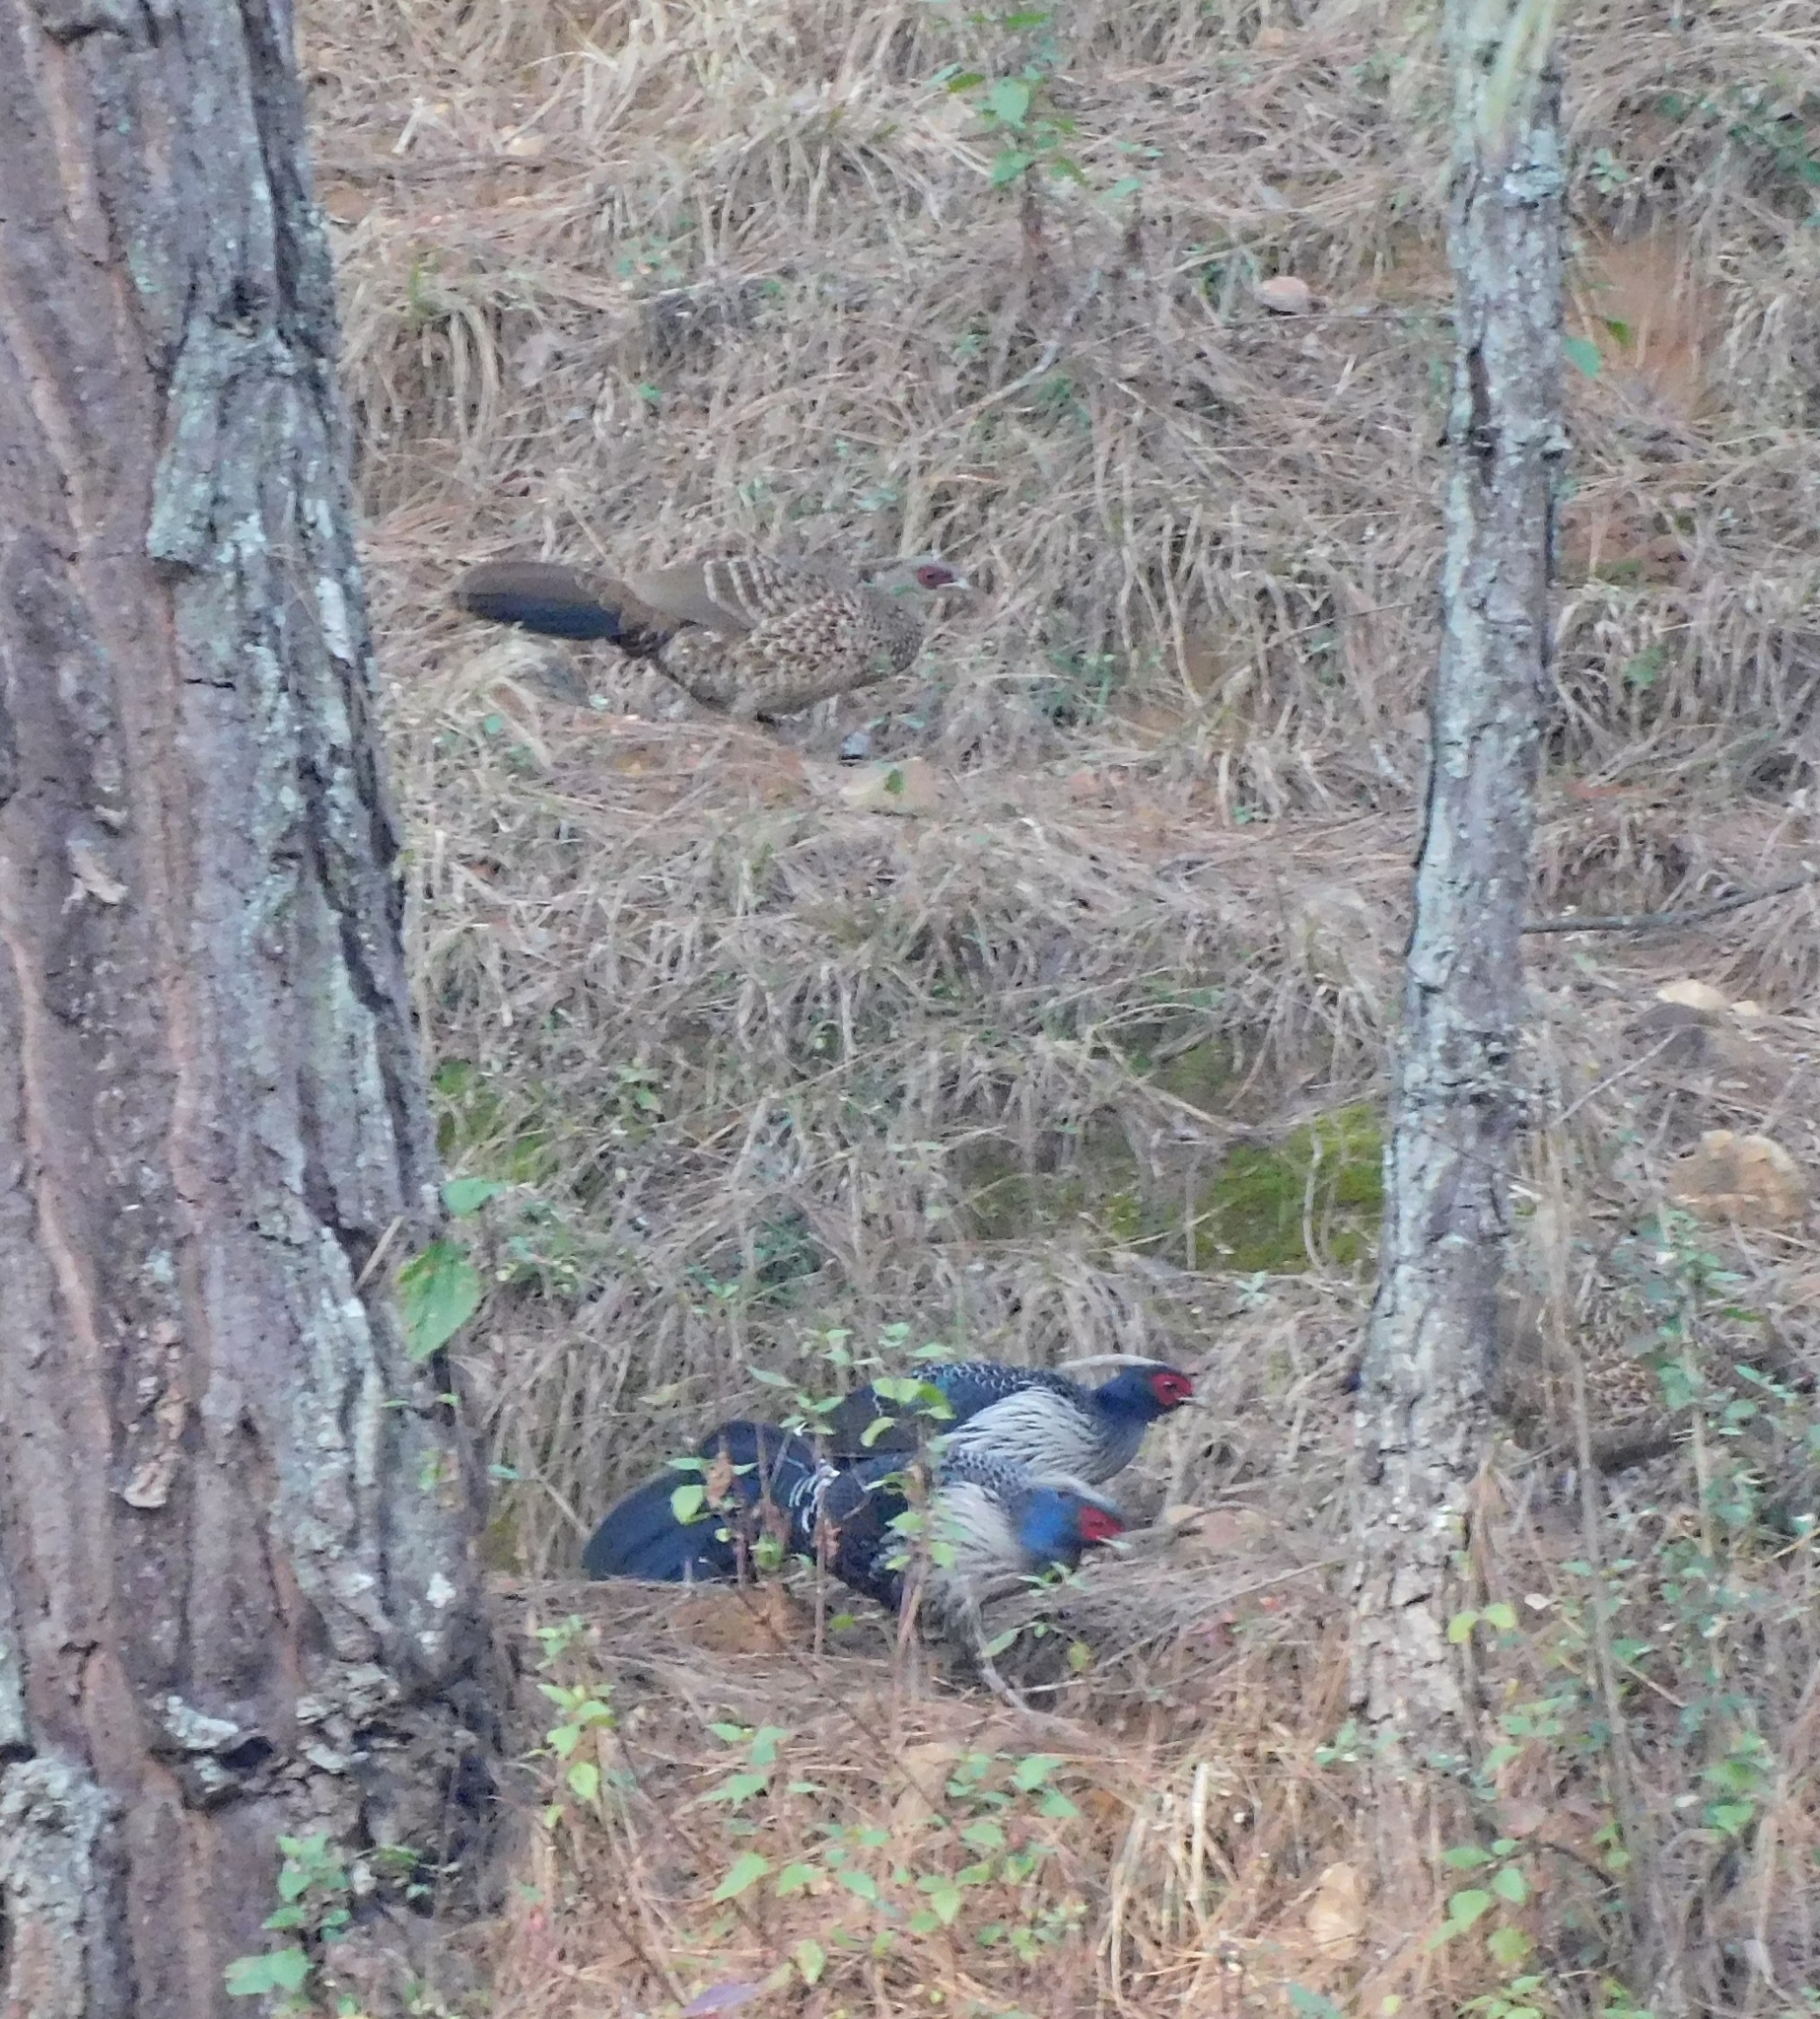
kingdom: Animalia
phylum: Chordata
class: Aves
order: Galliformes
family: Phasianidae
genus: Lophura
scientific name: Lophura leucomelanos
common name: Kalij pheasant
